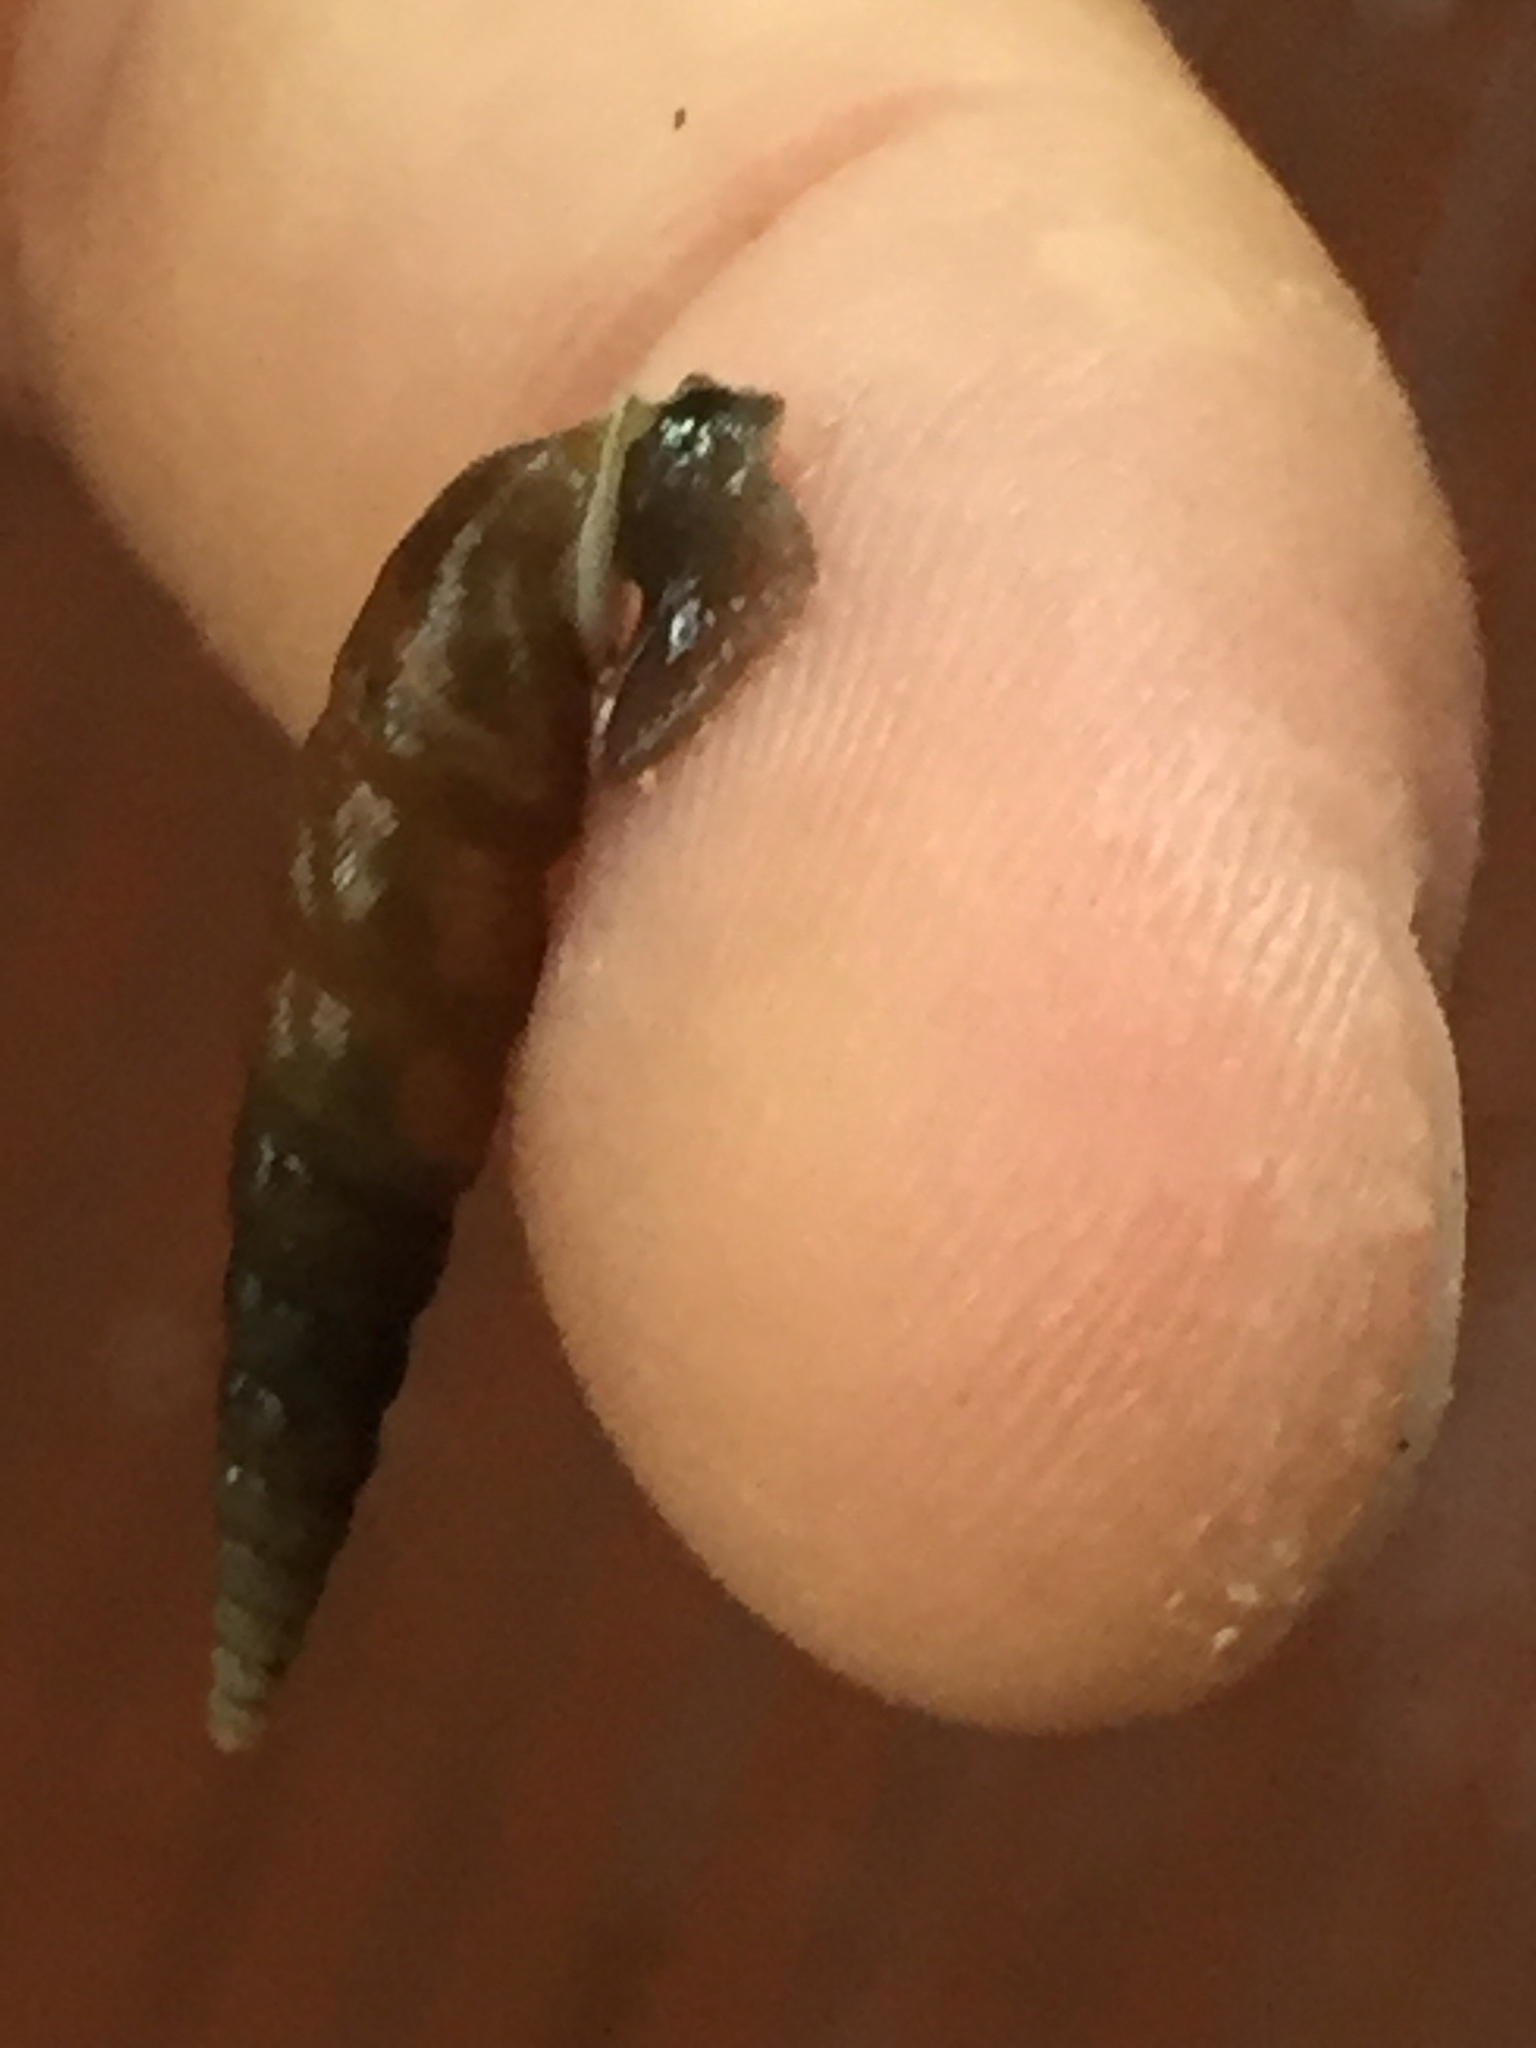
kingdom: Animalia
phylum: Mollusca
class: Gastropoda
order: Stylommatophora
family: Clausiliidae
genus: Phaedusa
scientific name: Phaedusa bocki
